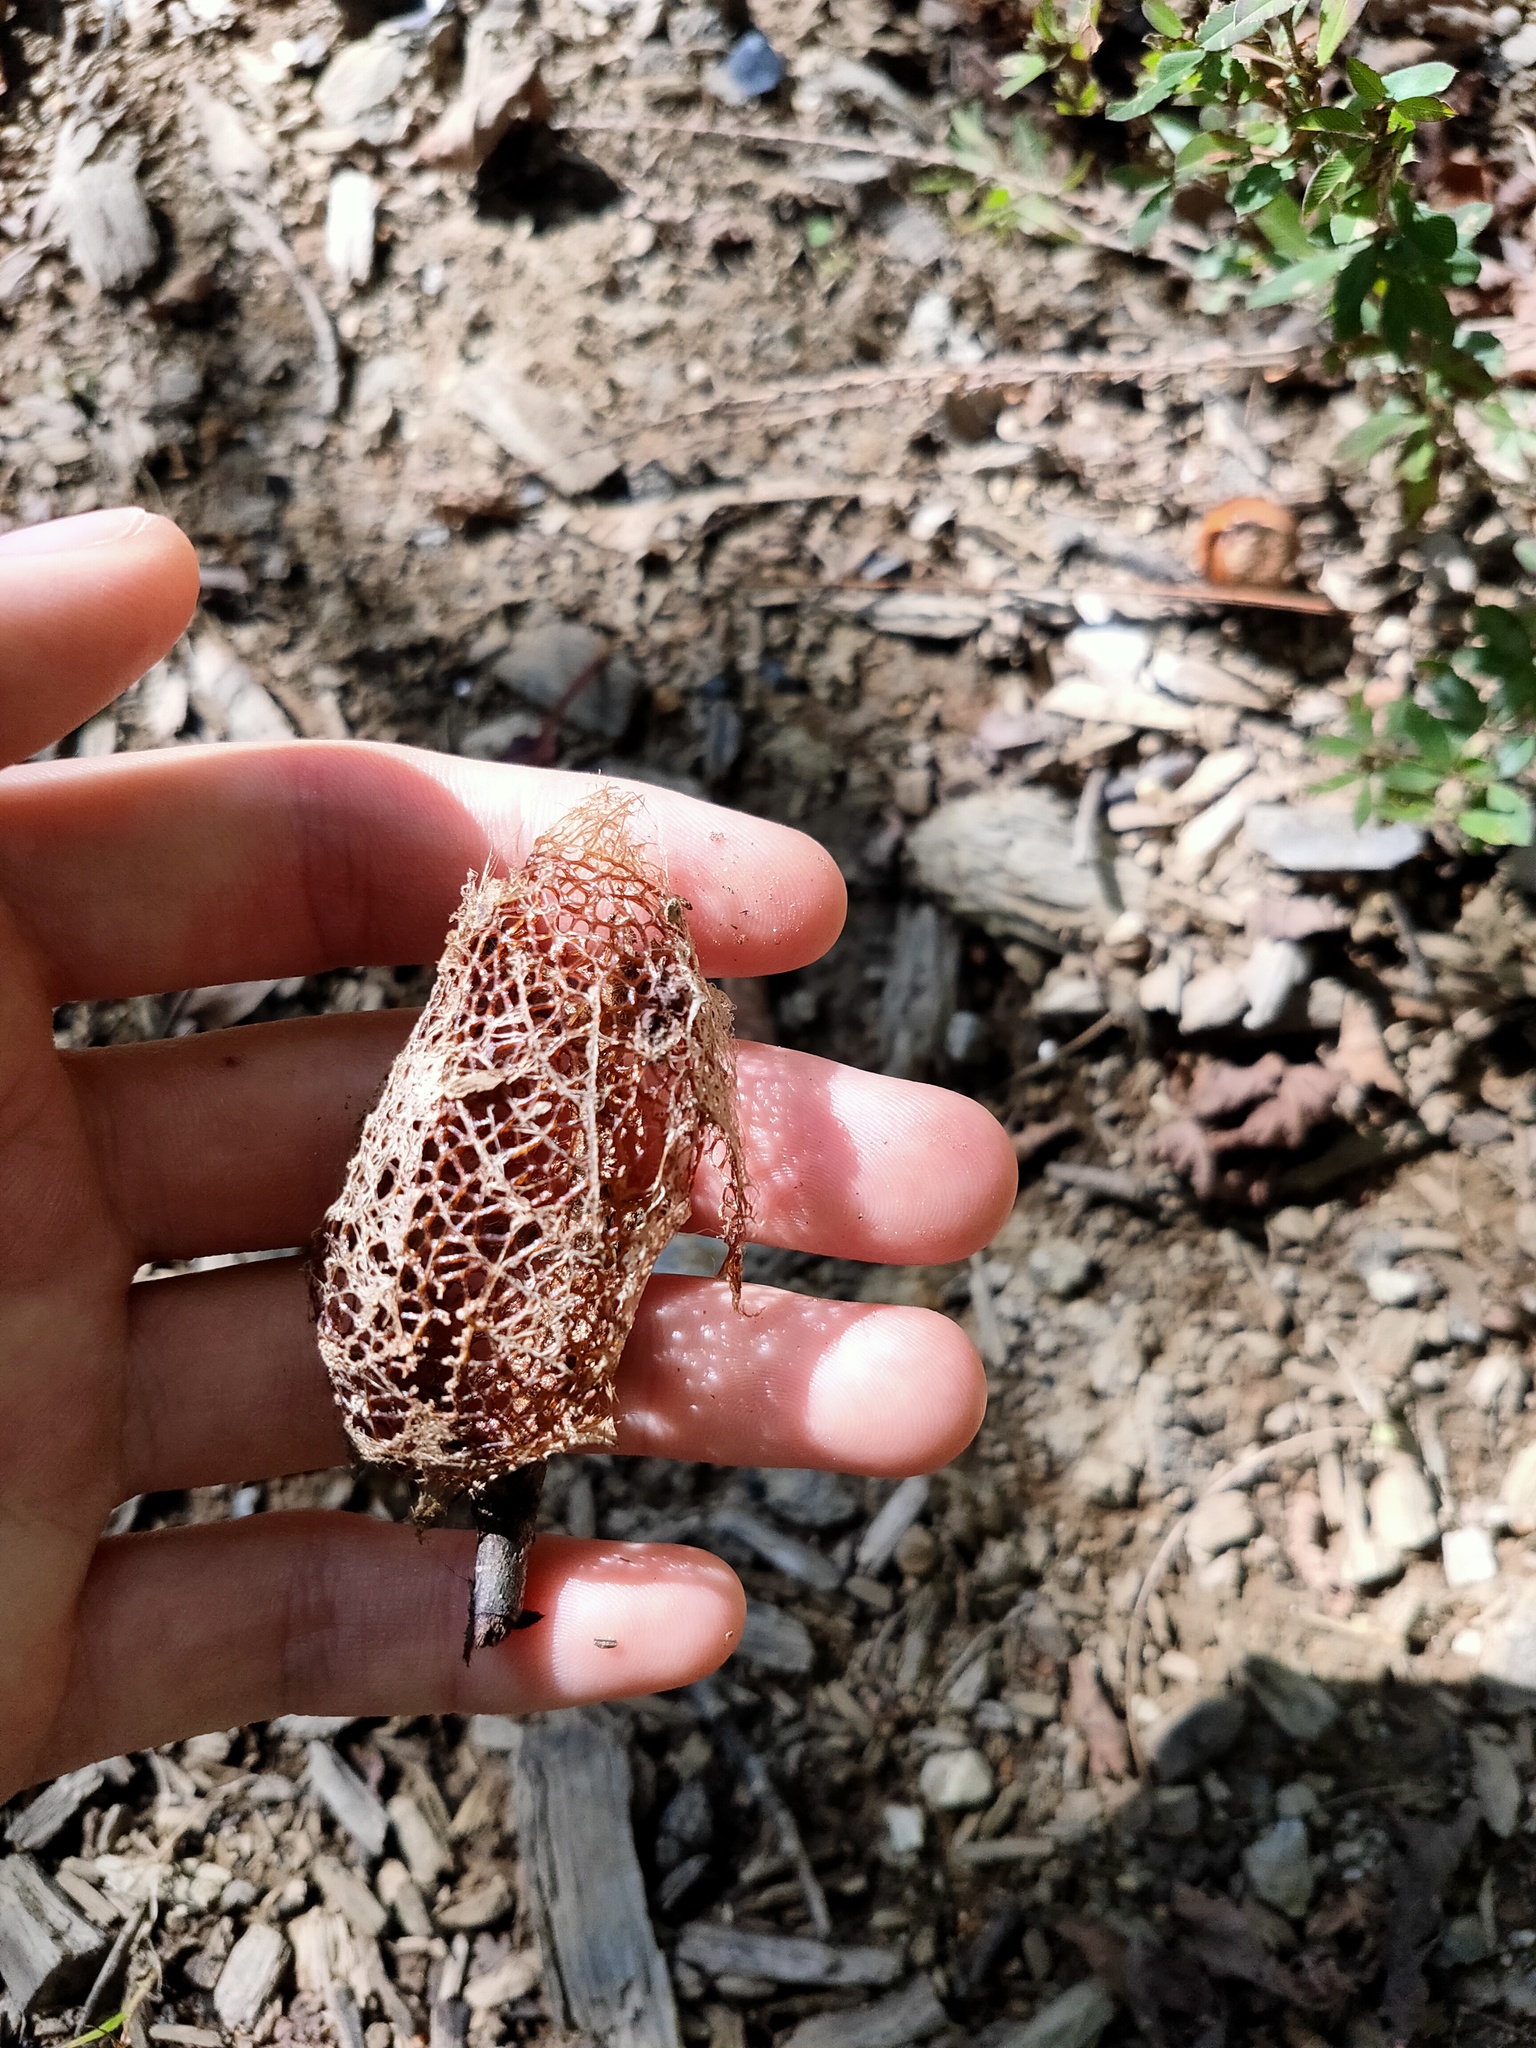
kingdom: Animalia
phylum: Arthropoda
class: Insecta
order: Lepidoptera
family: Saturniidae
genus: Saturnia
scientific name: Saturnia japonica
